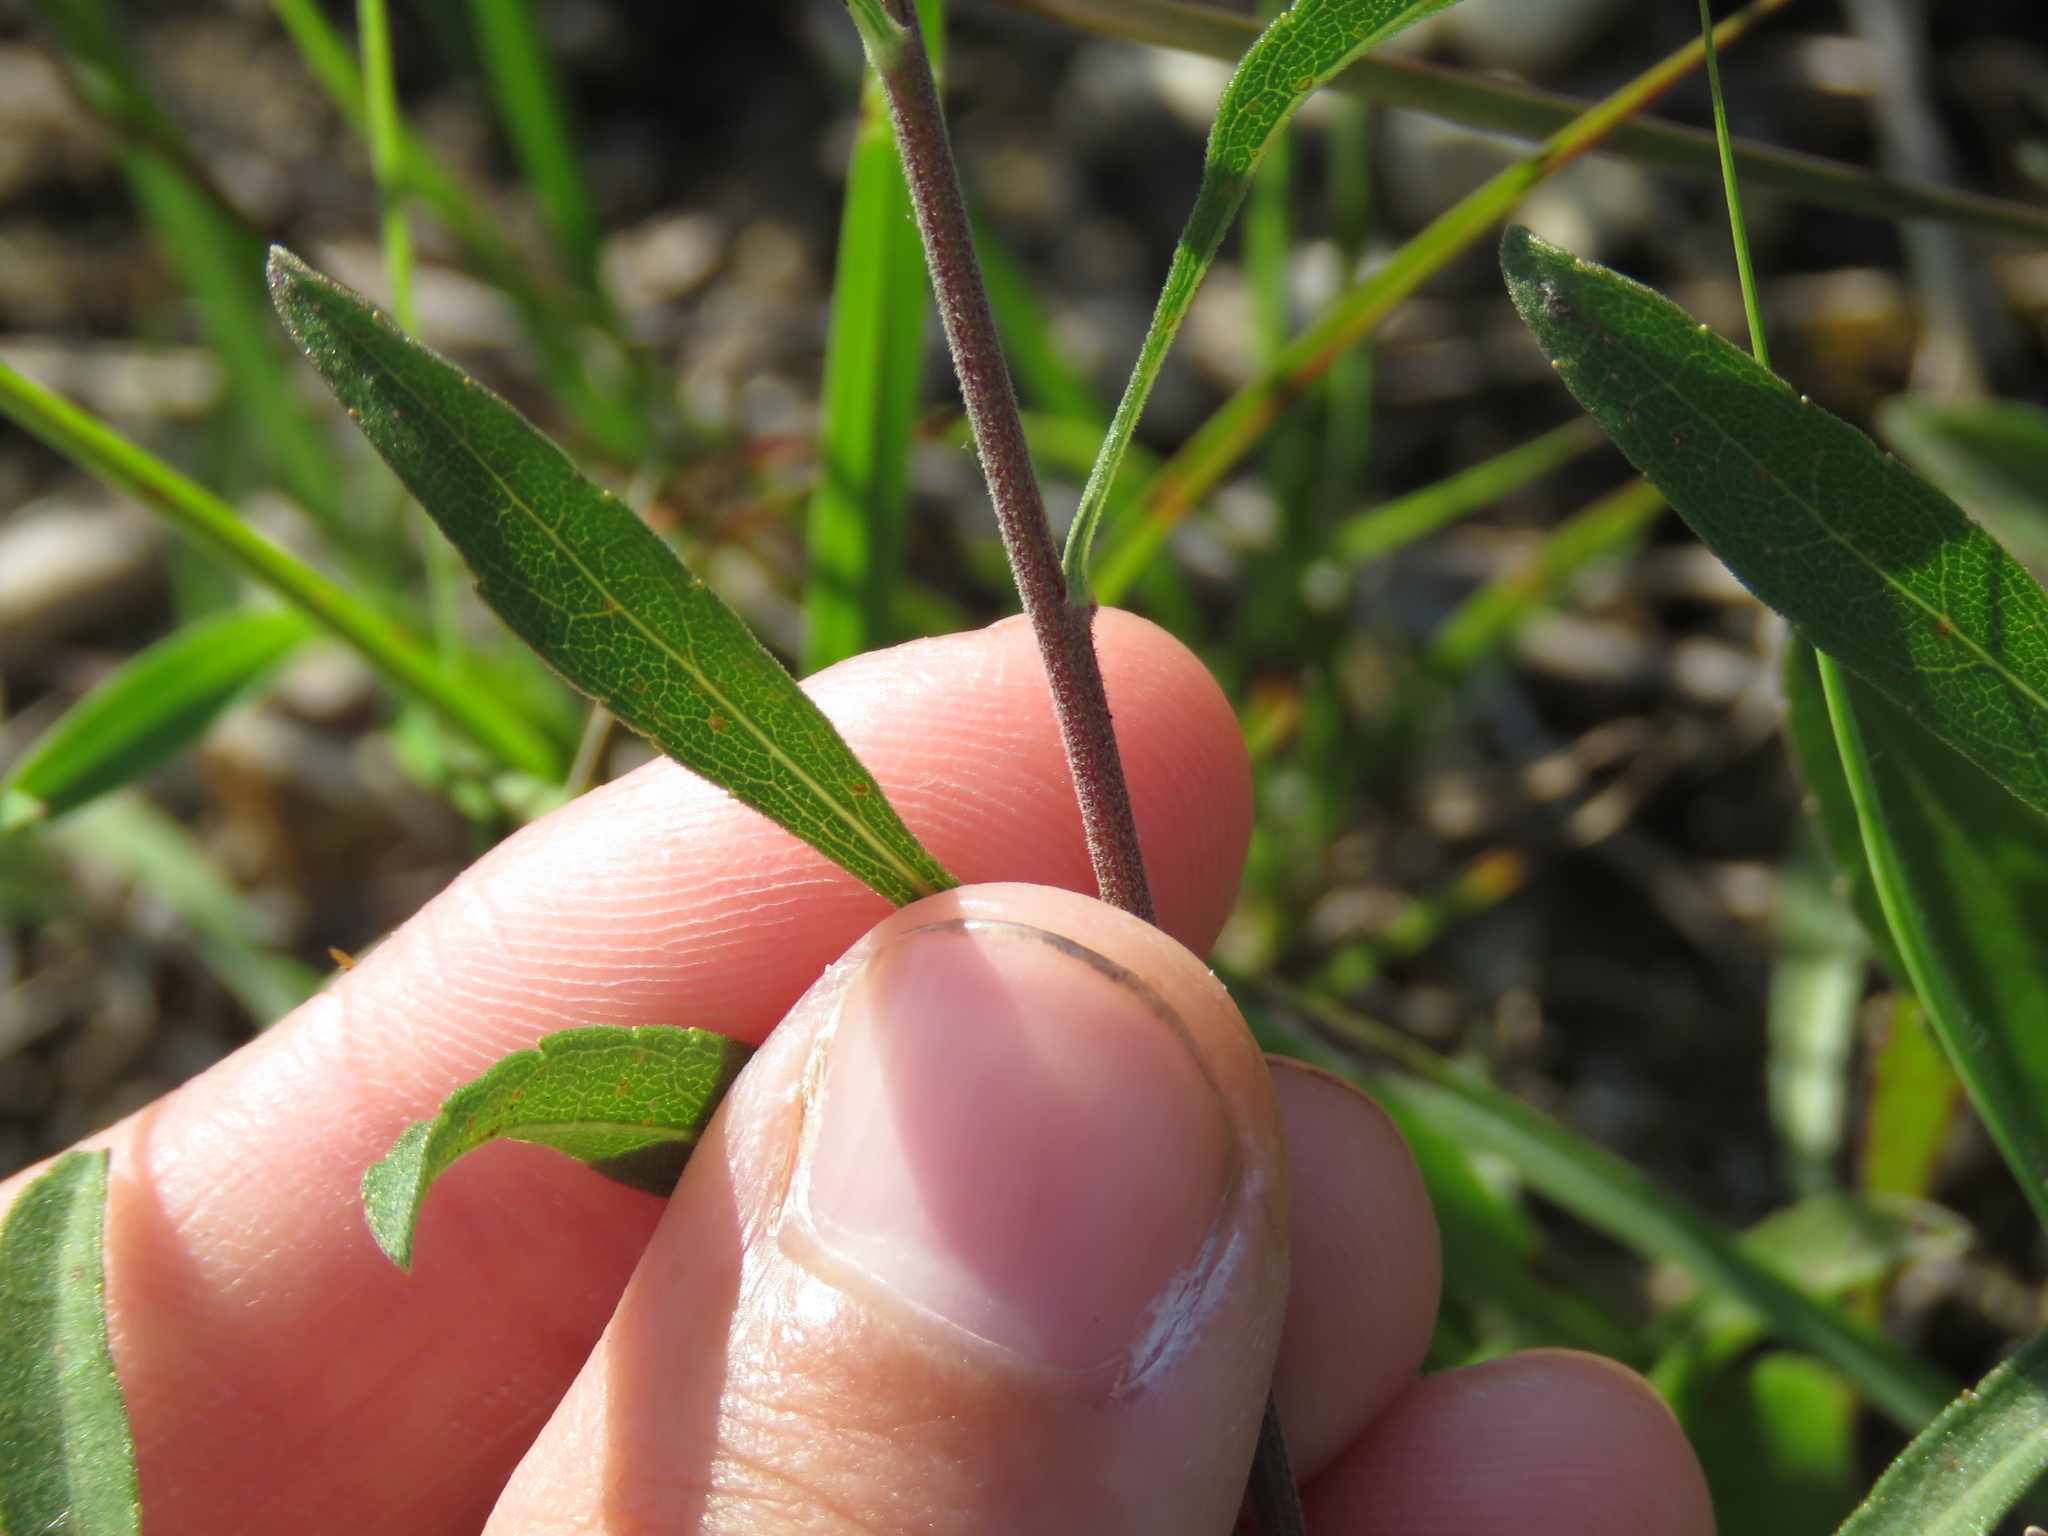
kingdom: Plantae
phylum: Tracheophyta
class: Magnoliopsida
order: Asterales
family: Asteraceae
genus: Solidago
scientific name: Solidago nemoralis
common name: Grey goldenrod
